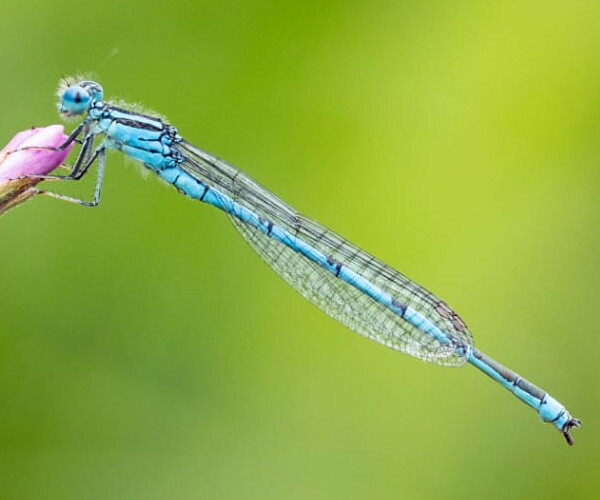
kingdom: Animalia
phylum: Arthropoda
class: Insecta
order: Odonata
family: Coenagrionidae
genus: Erythromma
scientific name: Erythromma lindenii
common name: Blue-eye
